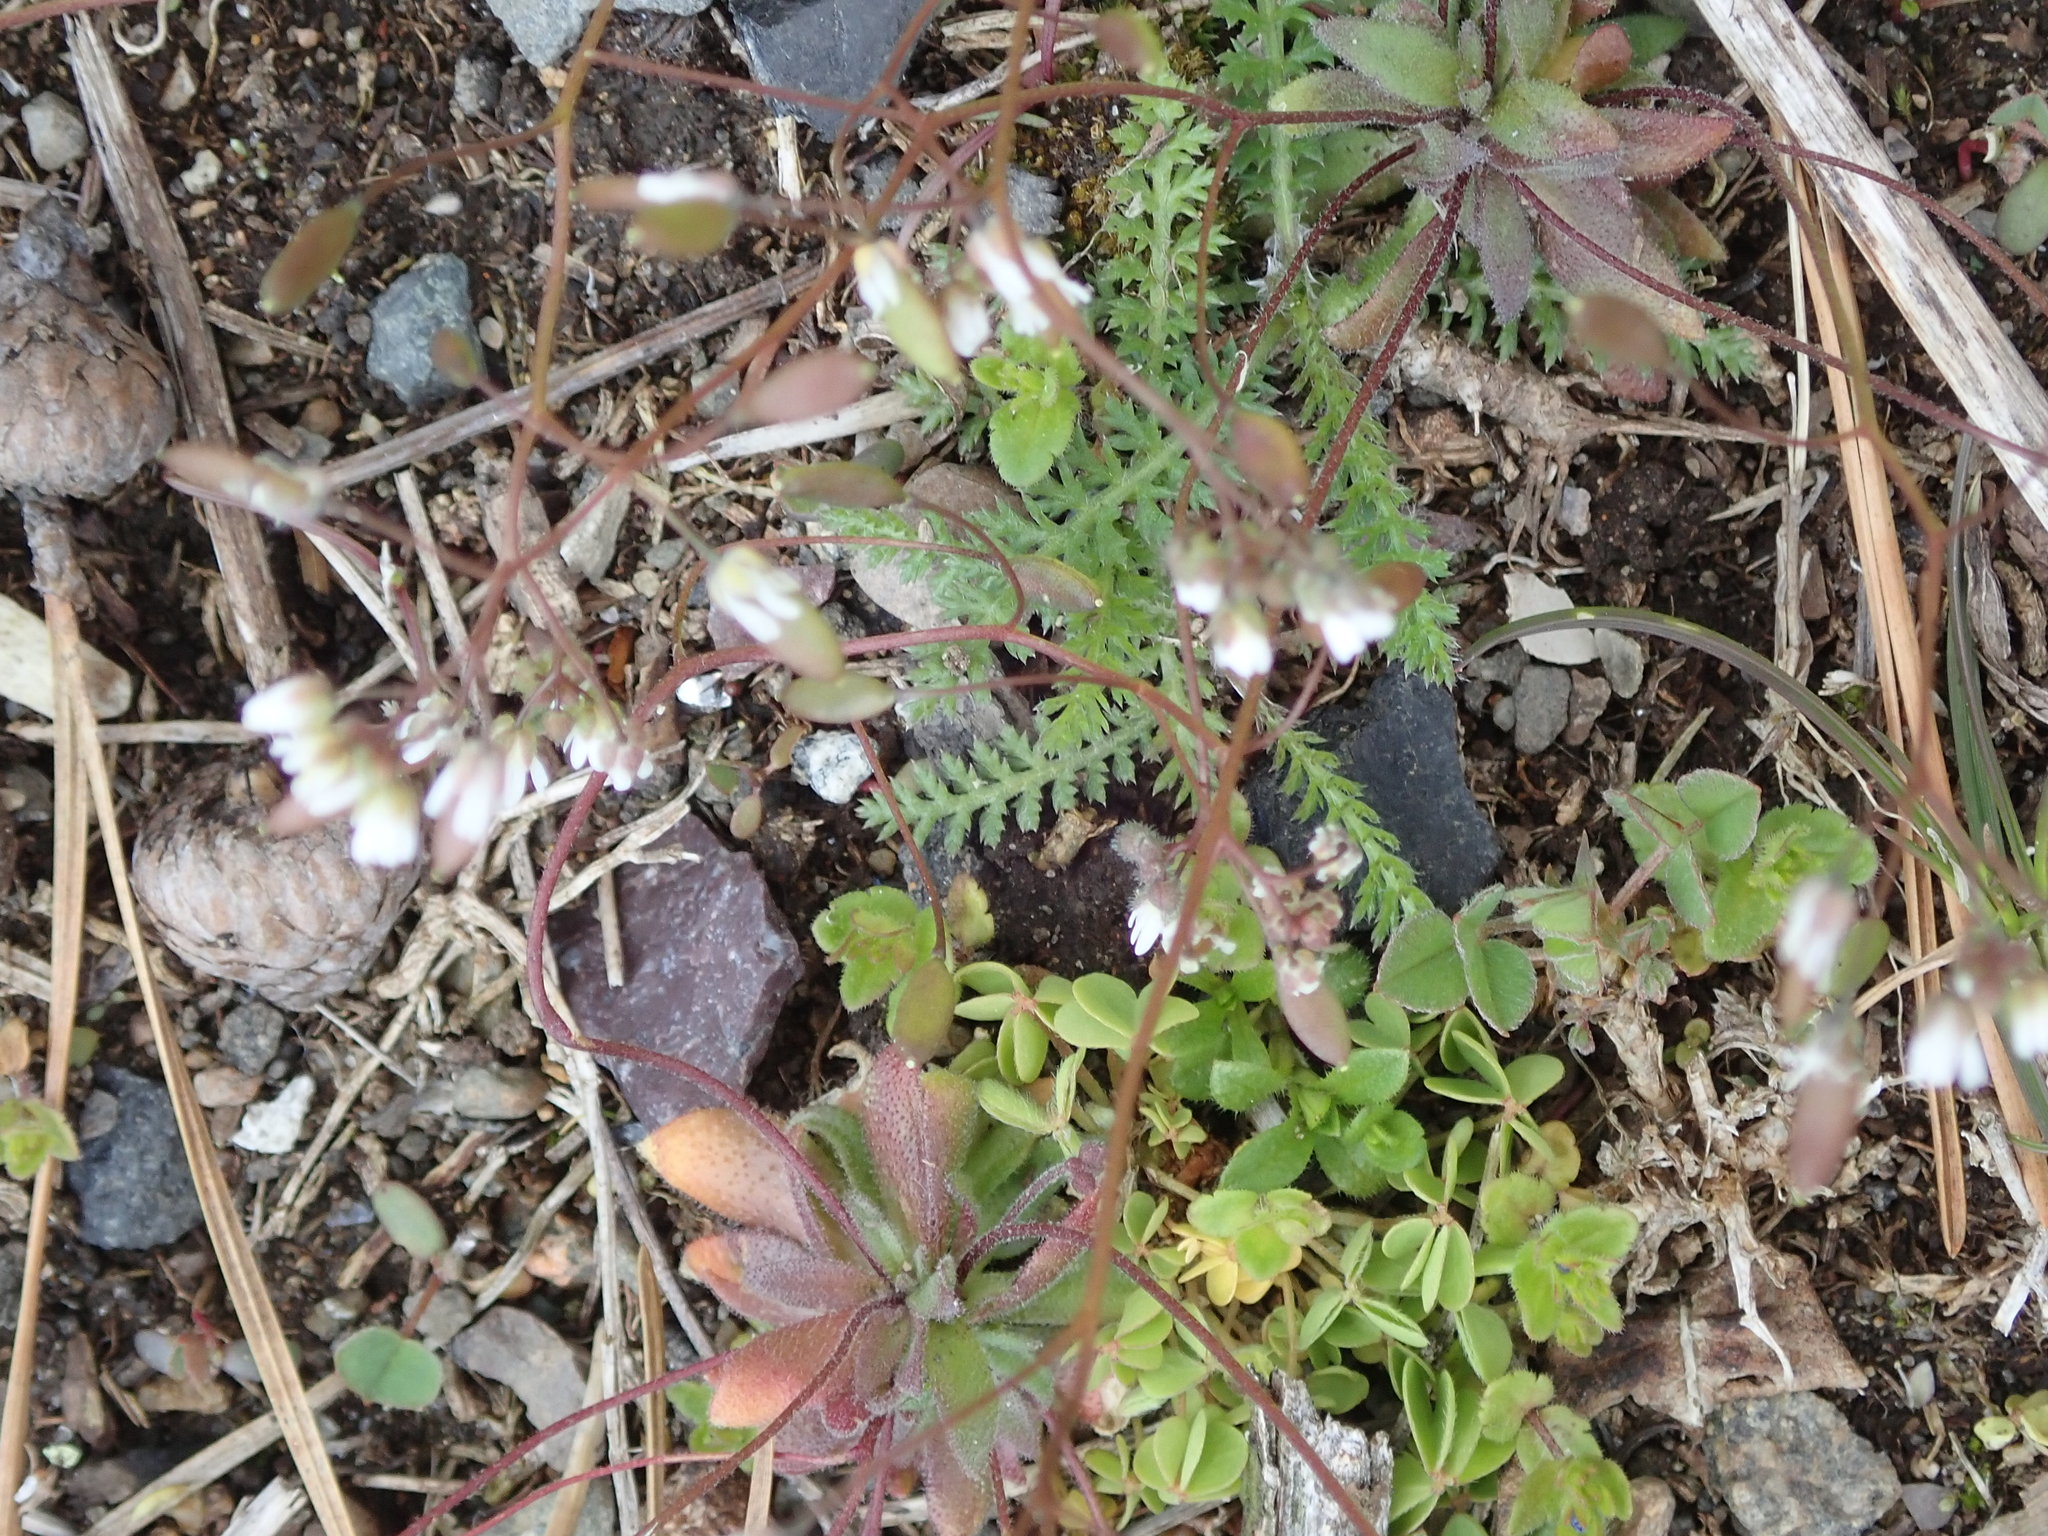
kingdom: Plantae
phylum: Tracheophyta
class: Magnoliopsida
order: Brassicales
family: Brassicaceae
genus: Draba
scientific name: Draba verna
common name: Spring draba
